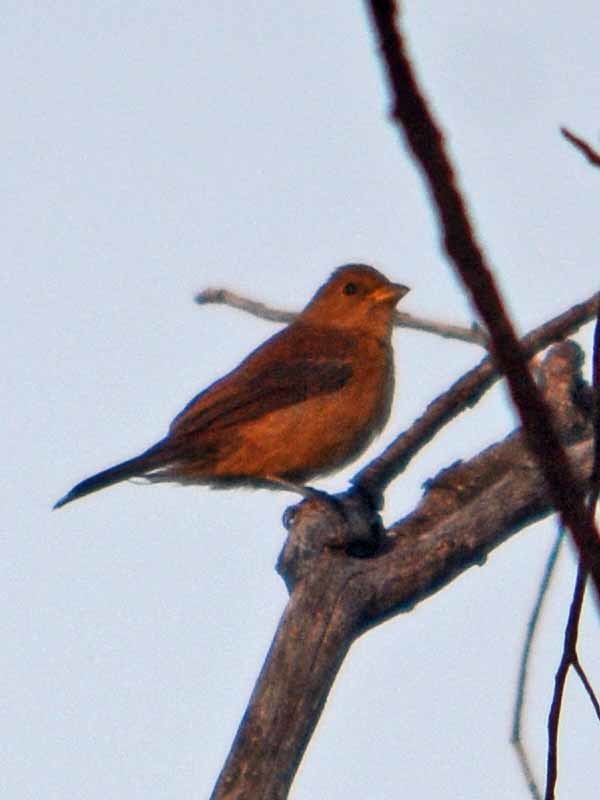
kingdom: Animalia
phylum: Chordata
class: Aves
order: Passeriformes
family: Cardinalidae
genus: Passerina
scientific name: Passerina cyanea
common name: Indigo bunting
